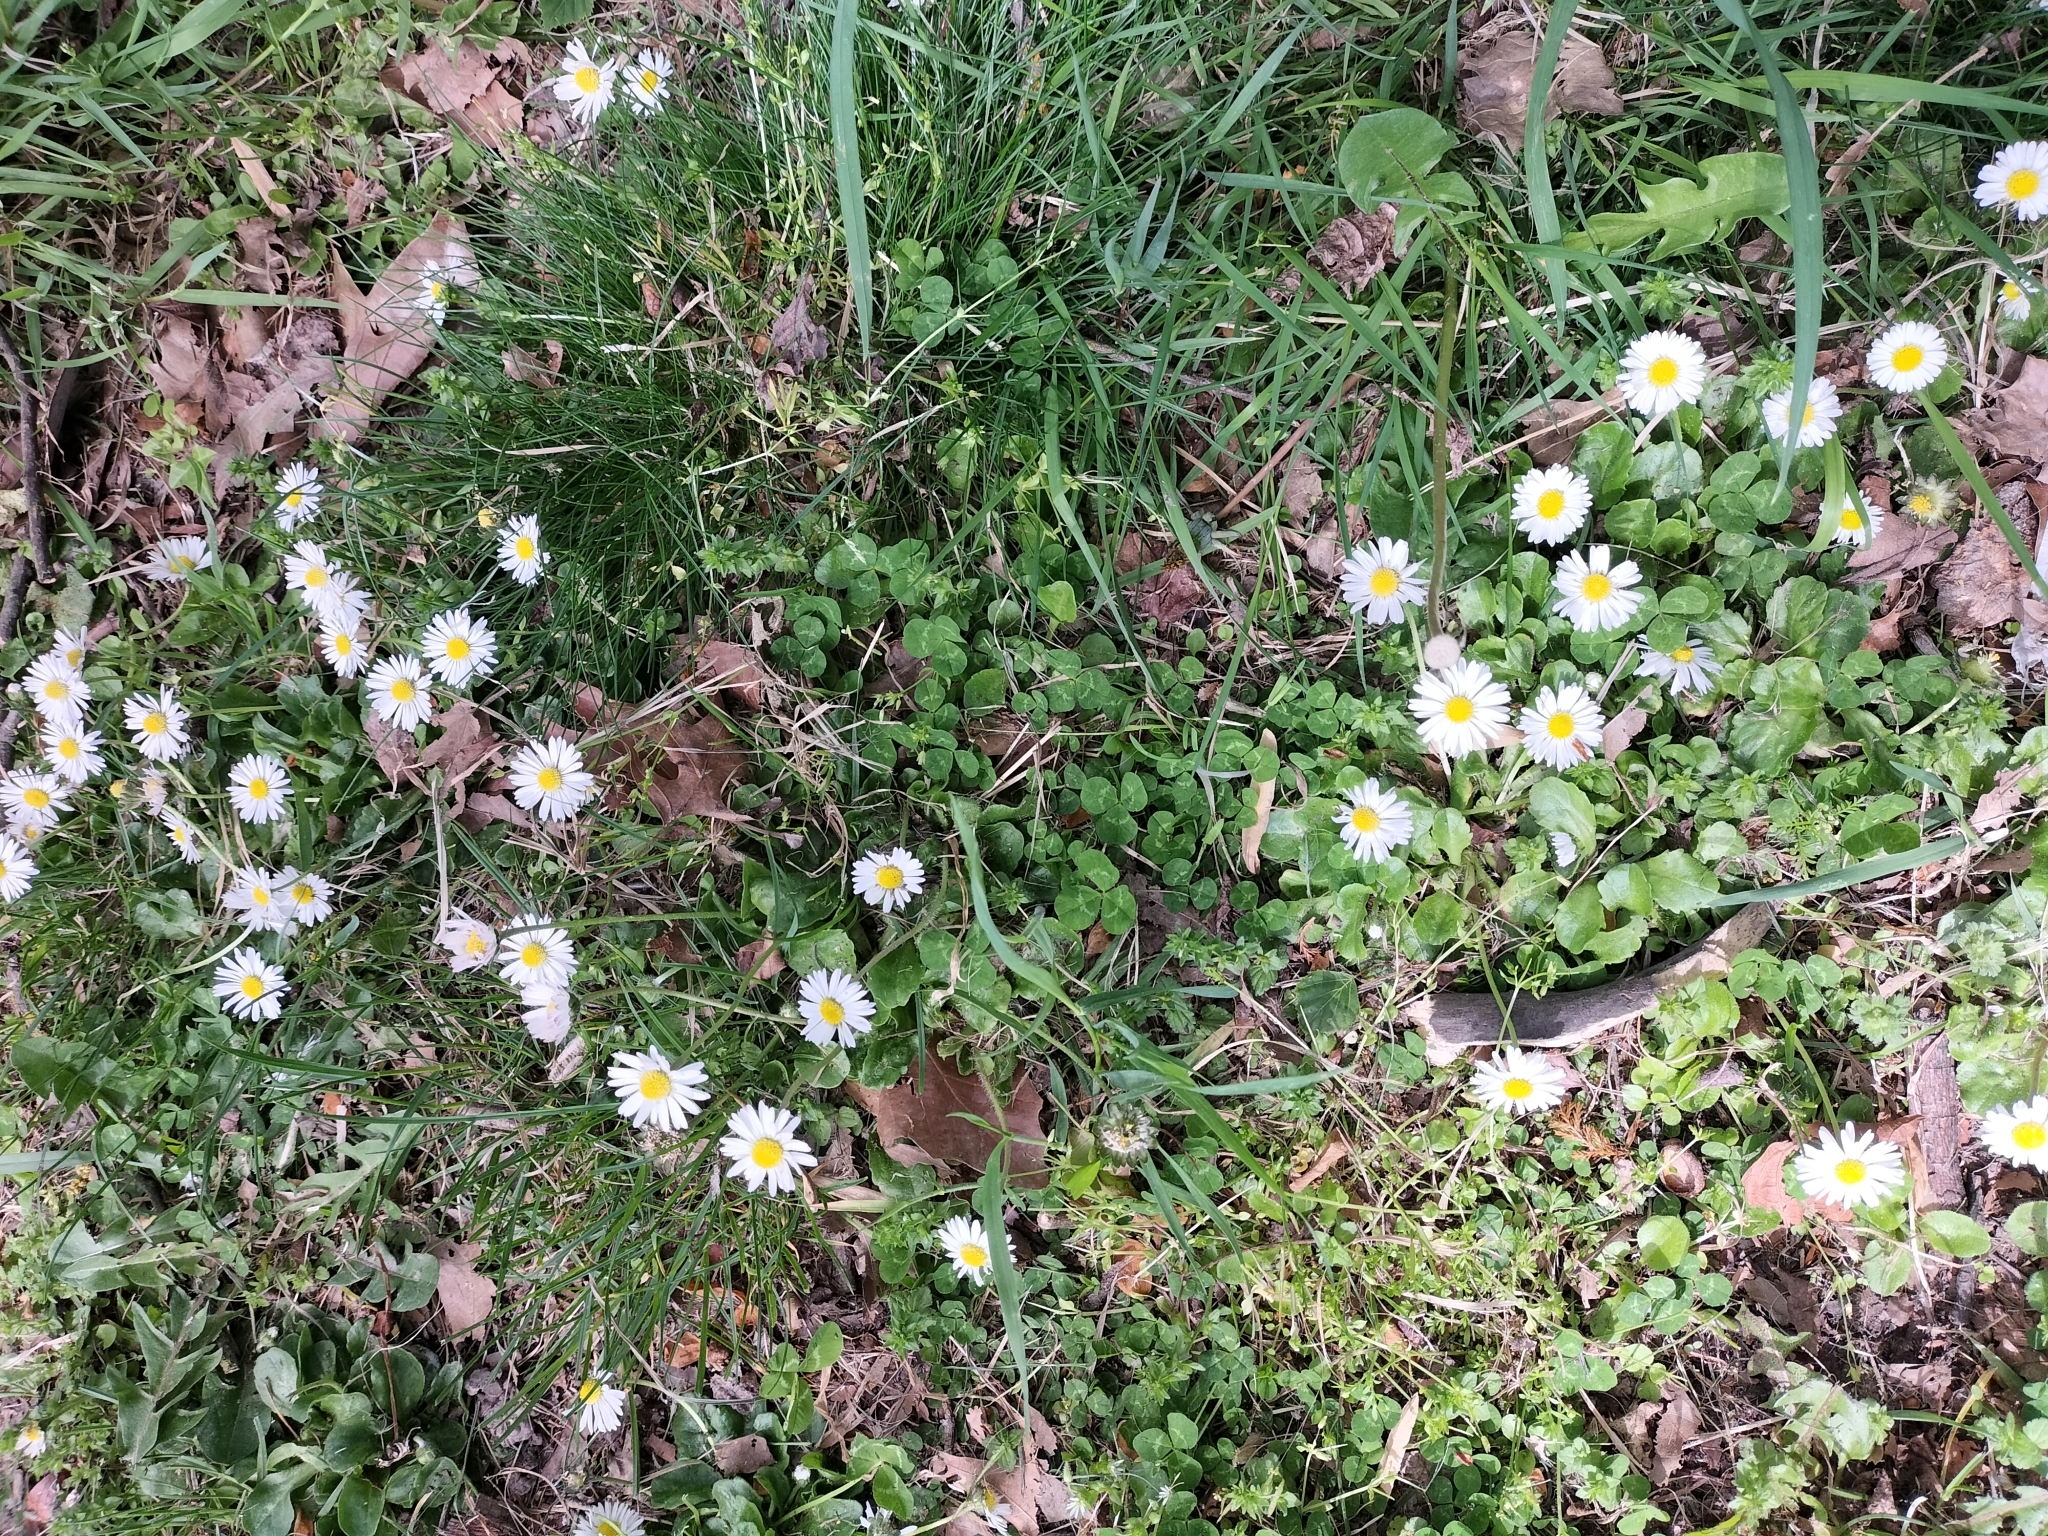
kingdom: Plantae
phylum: Tracheophyta
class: Magnoliopsida
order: Asterales
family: Asteraceae
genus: Bellis
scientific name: Bellis perennis
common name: Lawndaisy
